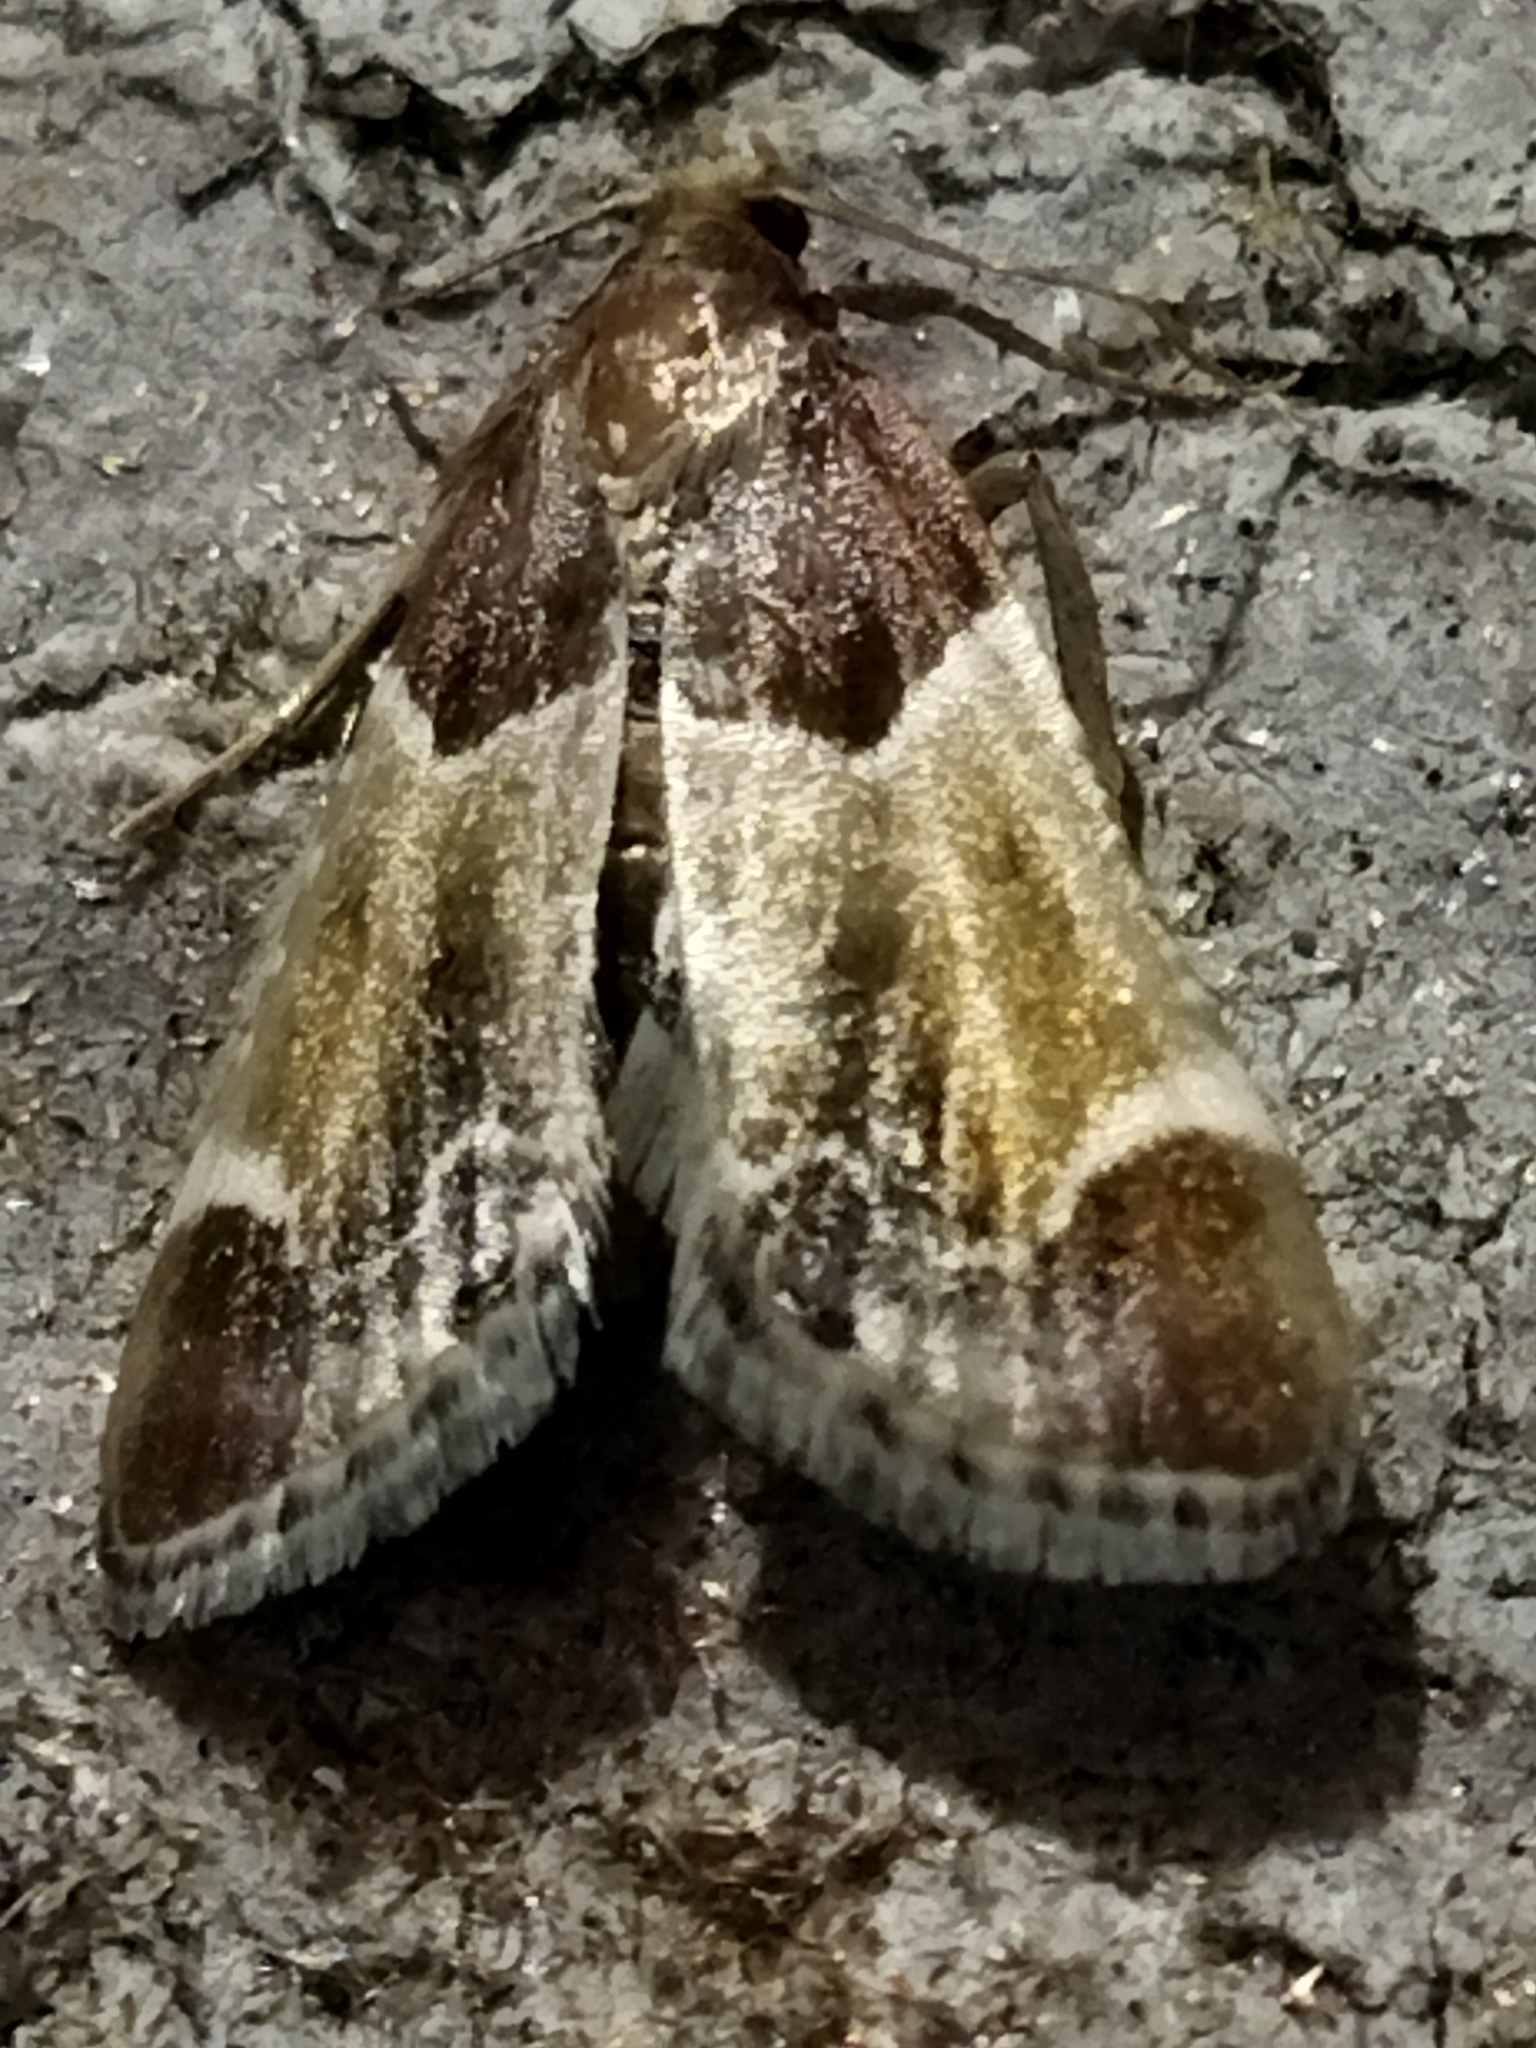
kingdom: Animalia
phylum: Arthropoda
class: Insecta
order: Lepidoptera
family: Pyralidae
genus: Pyralis
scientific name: Pyralis farinalis
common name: Meal moth
